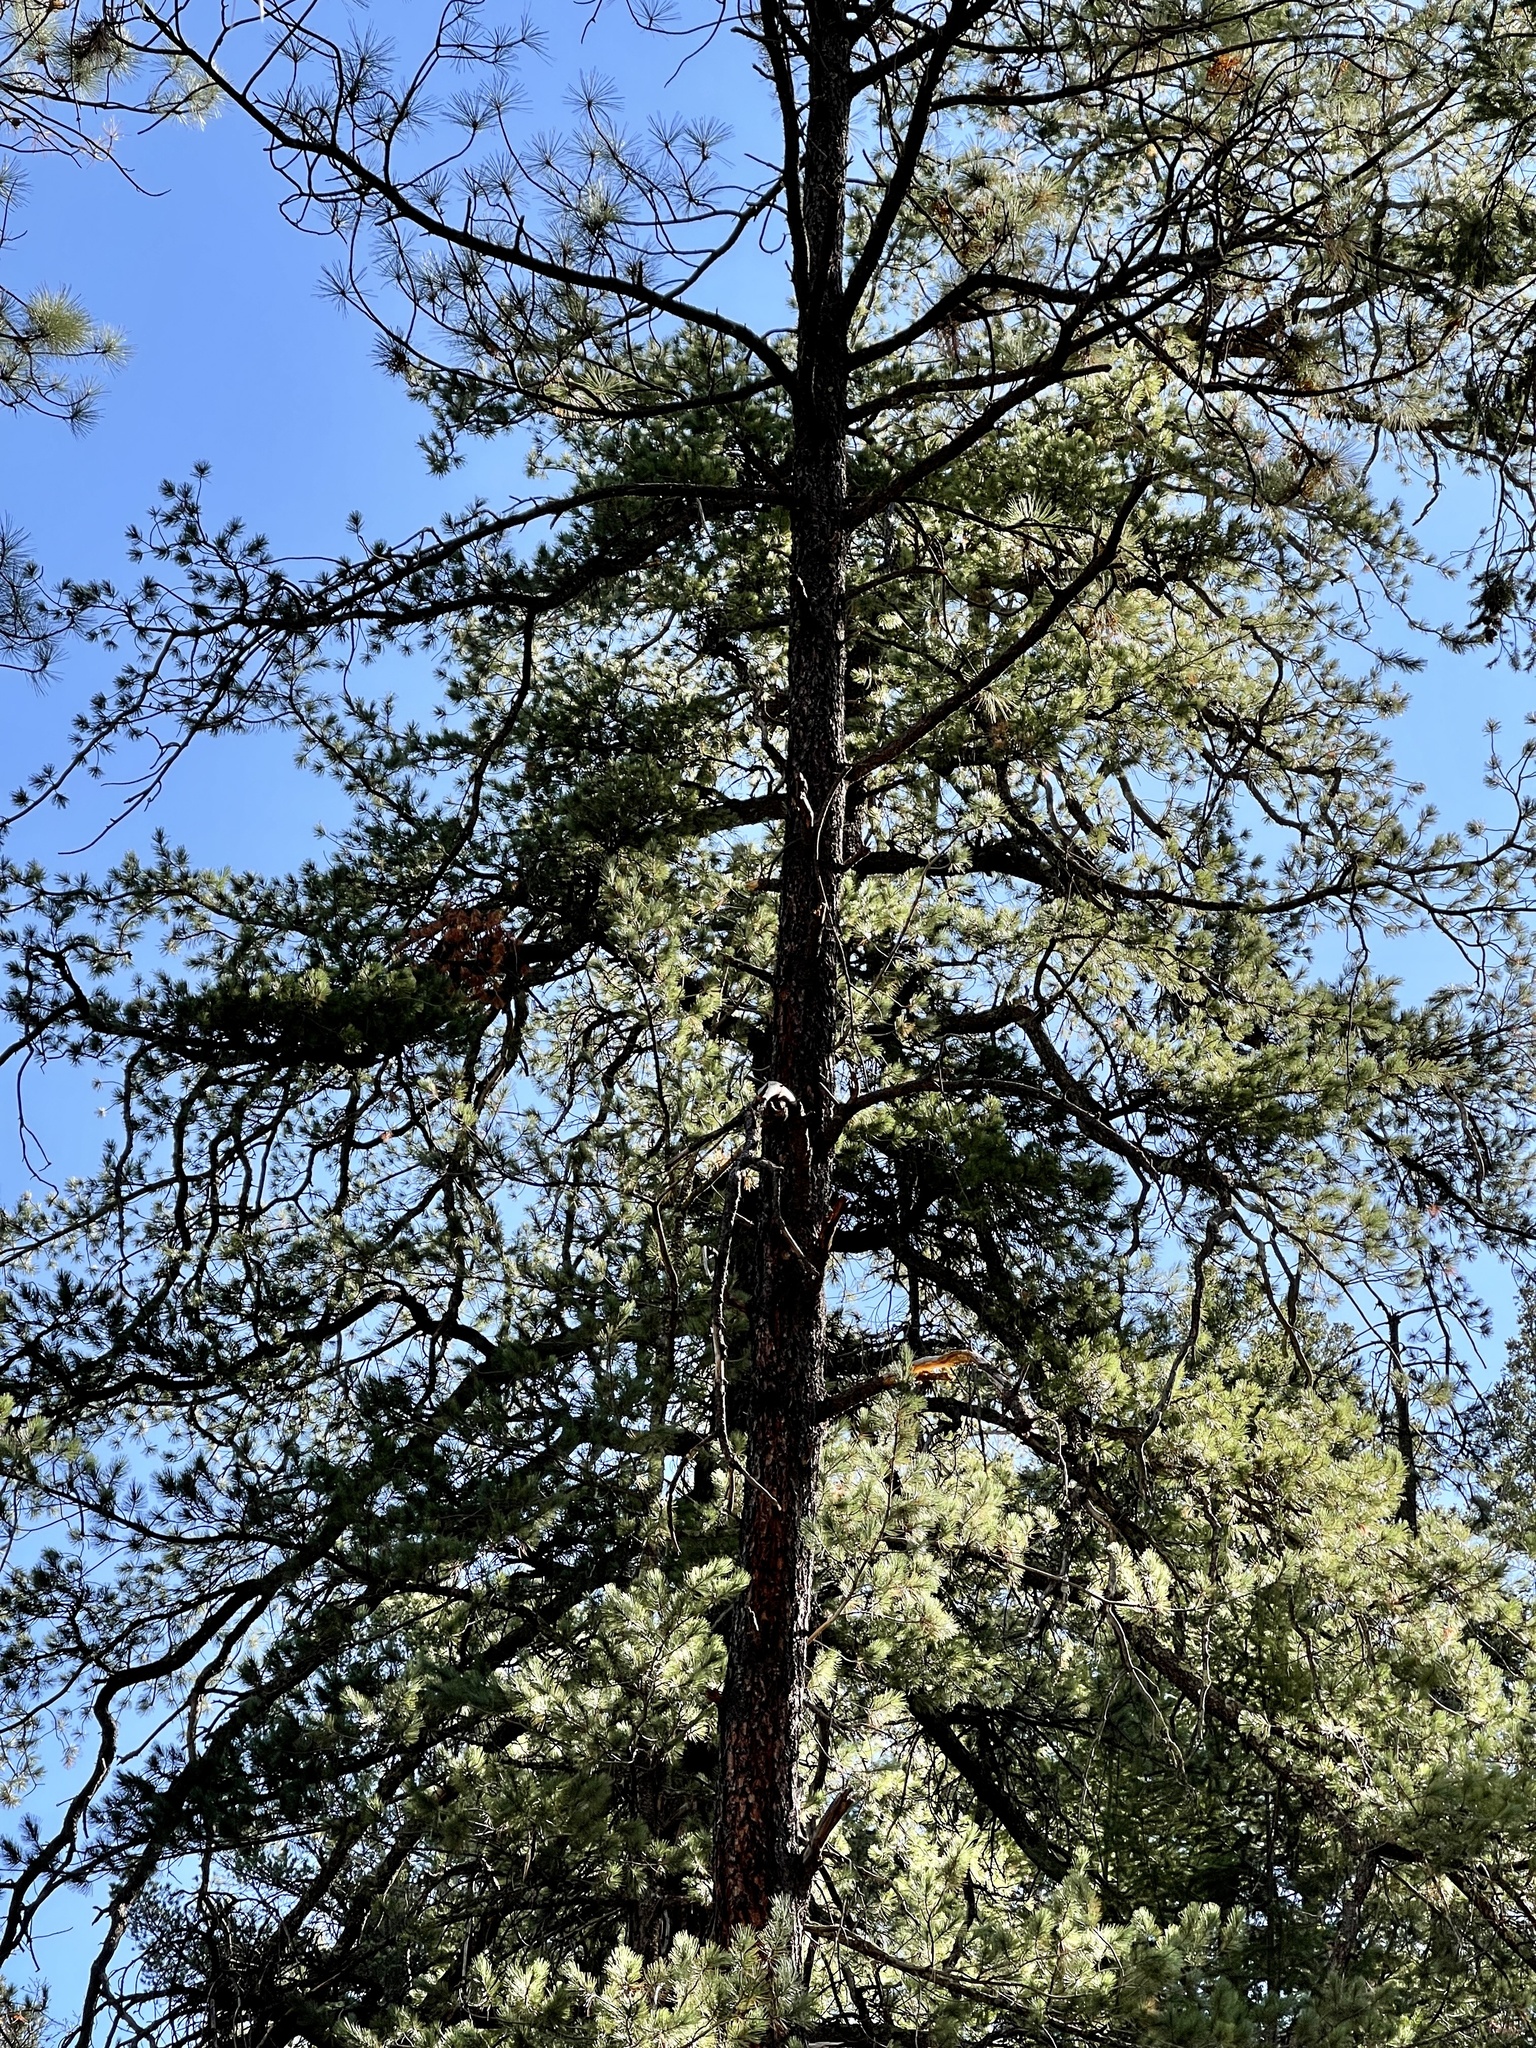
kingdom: Plantae
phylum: Tracheophyta
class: Pinopsida
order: Pinales
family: Pinaceae
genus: Pinus
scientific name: Pinus ponderosa
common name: Western yellow-pine
